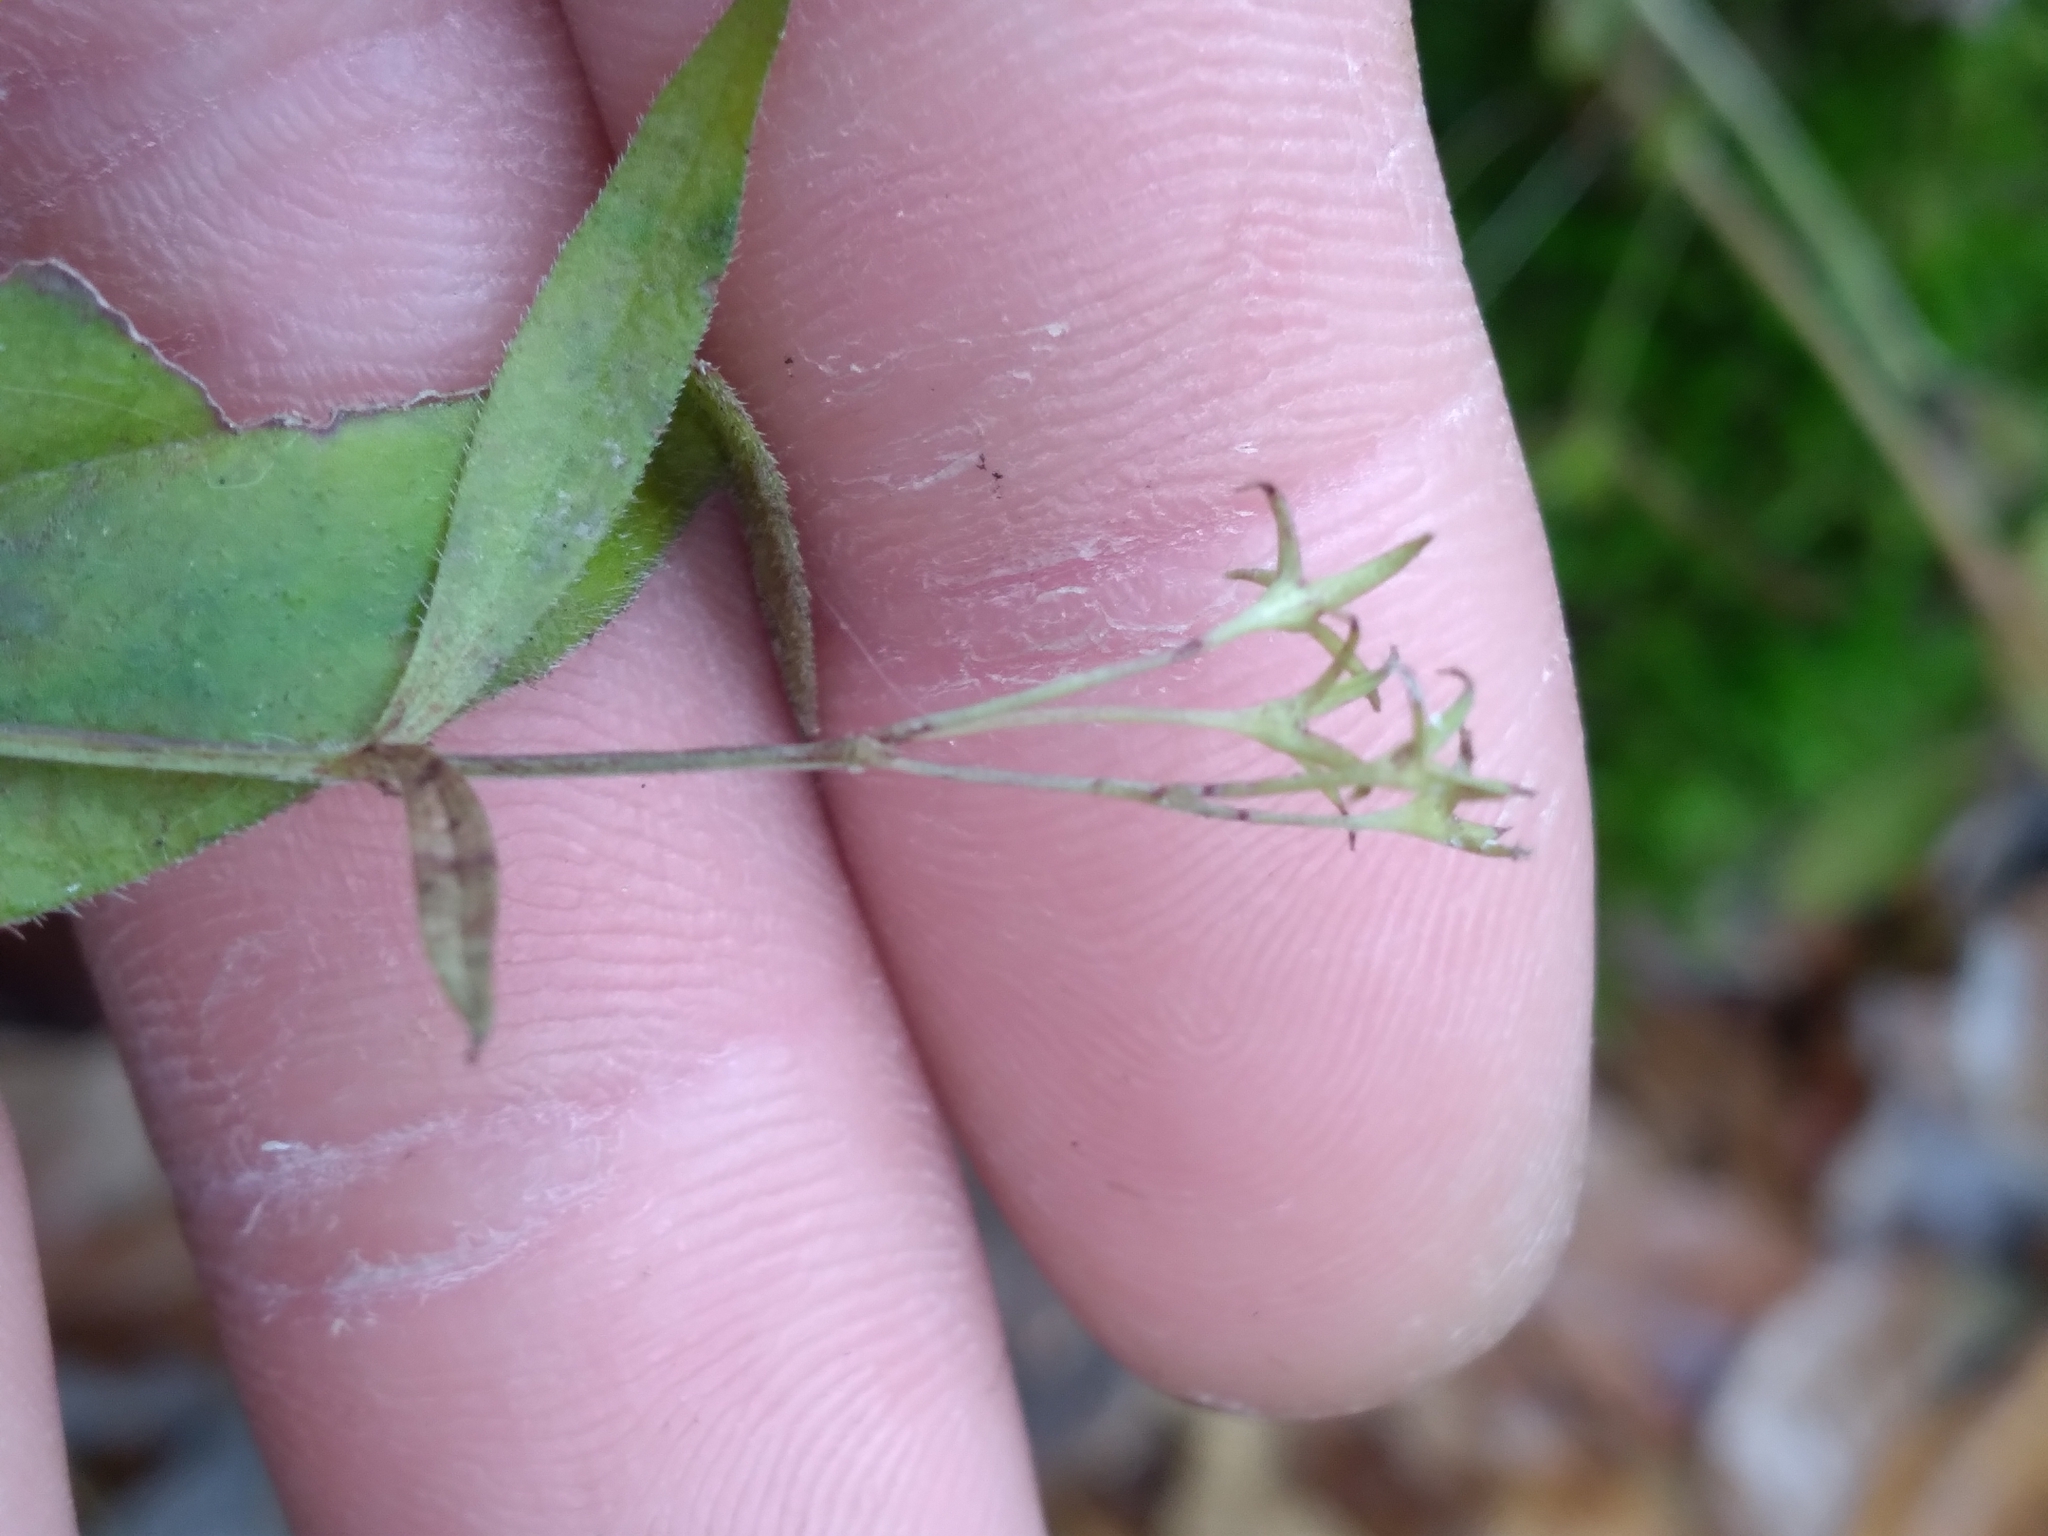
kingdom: Plantae
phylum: Tracheophyta
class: Magnoliopsida
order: Gentianales
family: Rubiaceae
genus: Houstonia
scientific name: Houstonia purpurea
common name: Summer bluet
